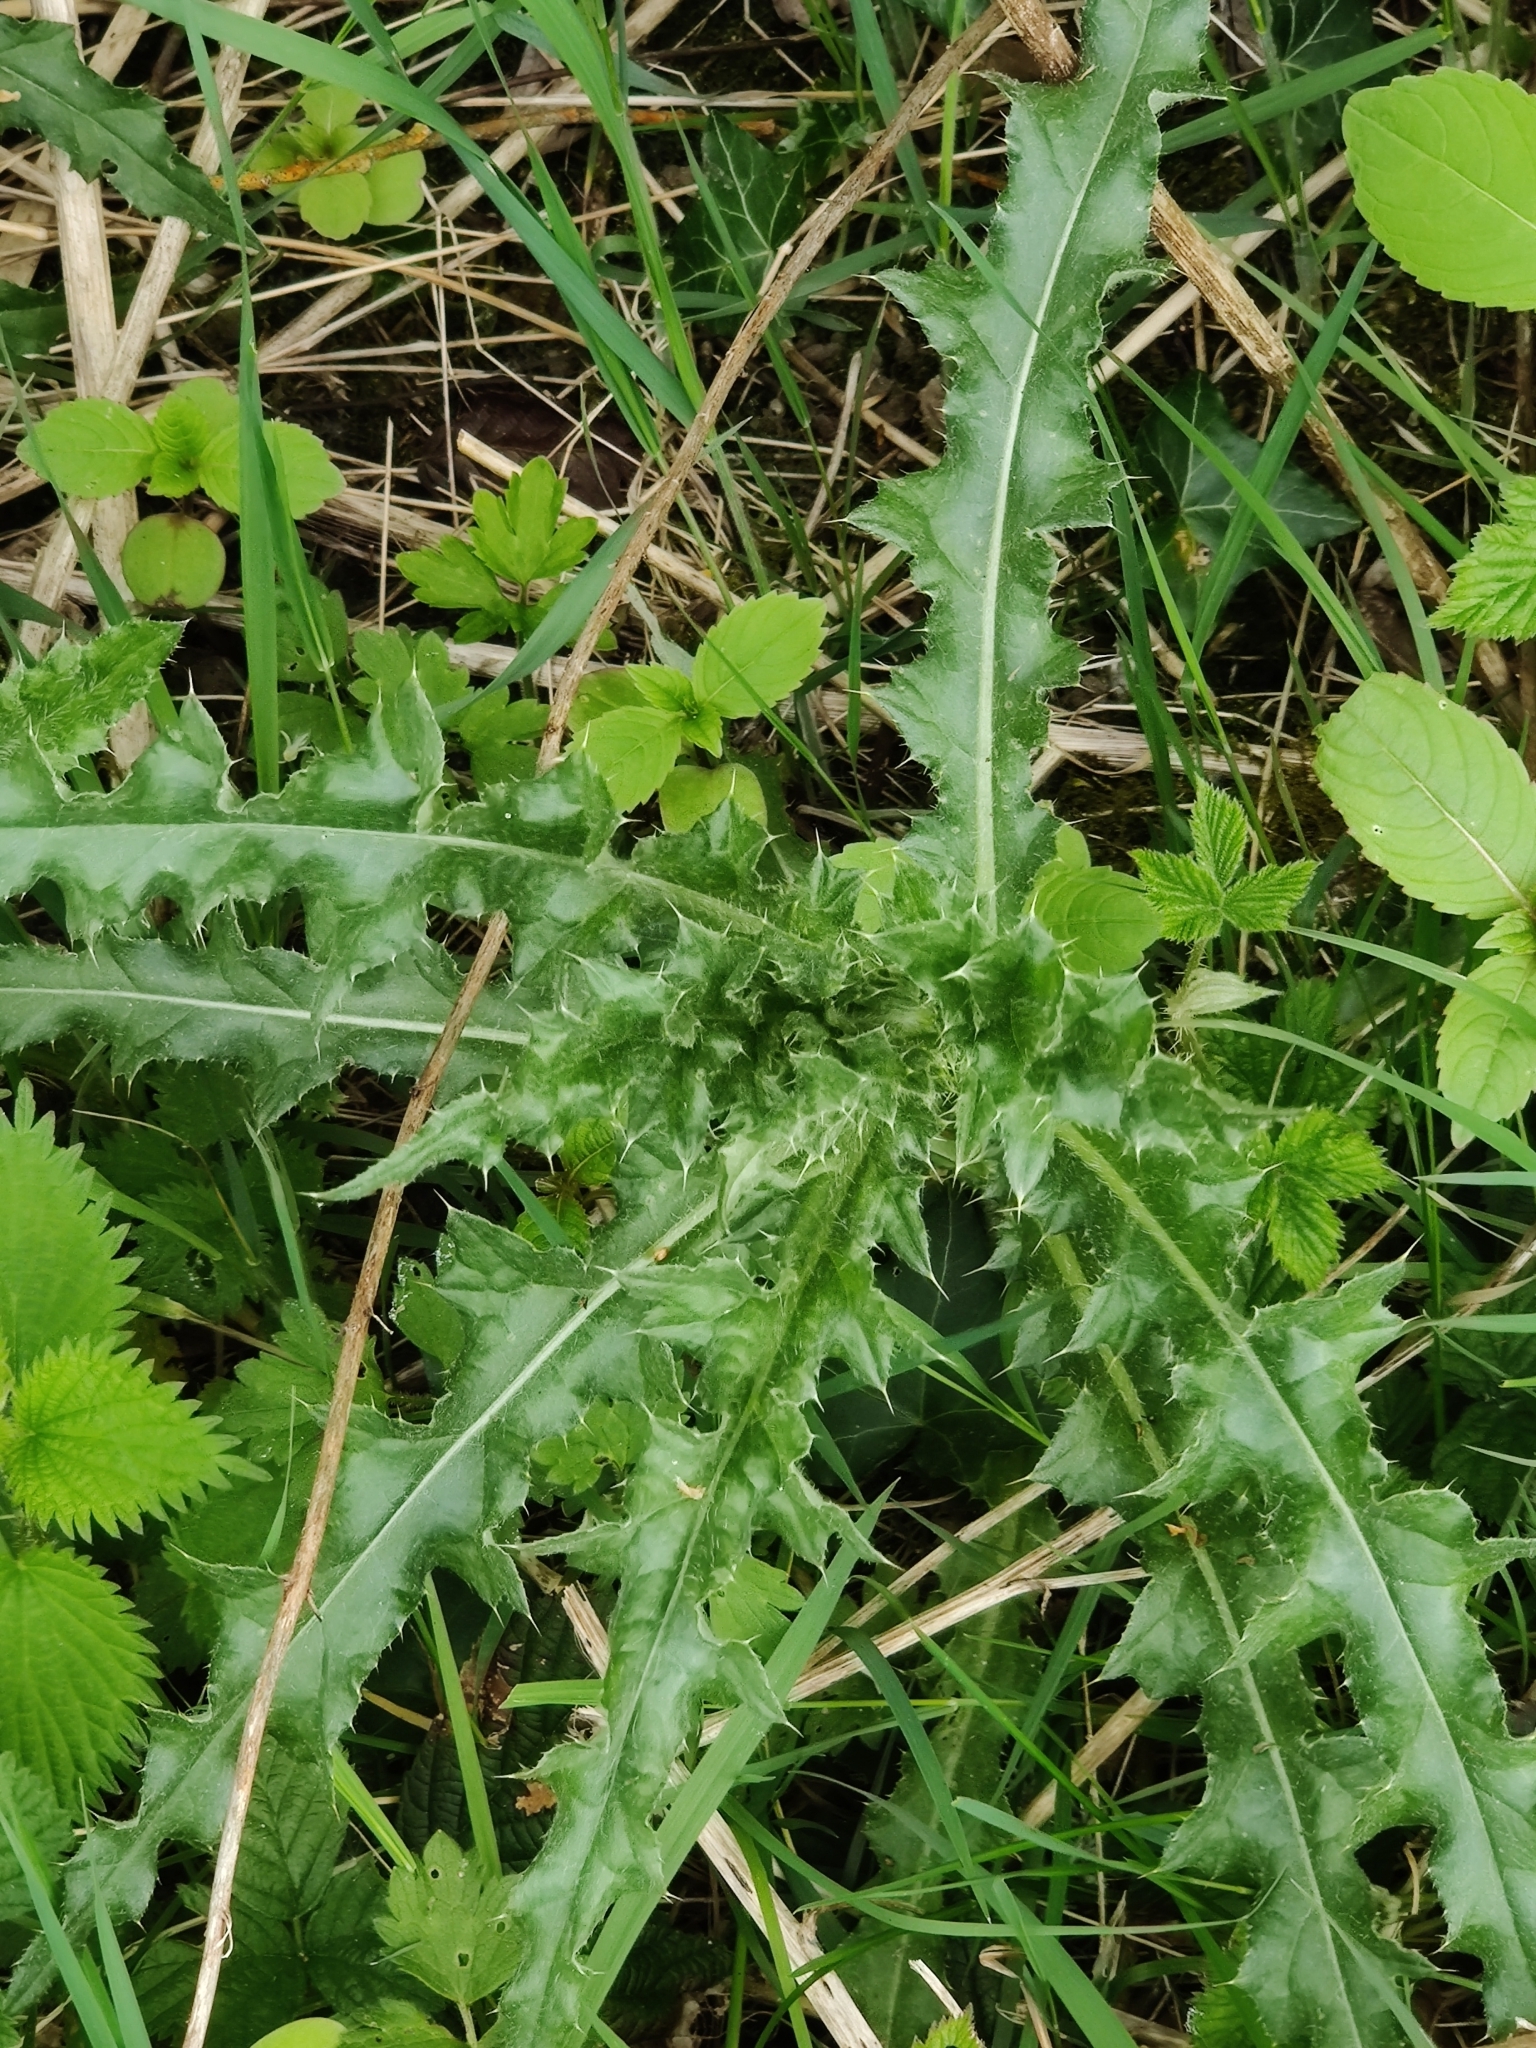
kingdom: Plantae
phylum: Tracheophyta
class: Magnoliopsida
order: Asterales
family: Asteraceae
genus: Cirsium
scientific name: Cirsium arvense
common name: Creeping thistle
